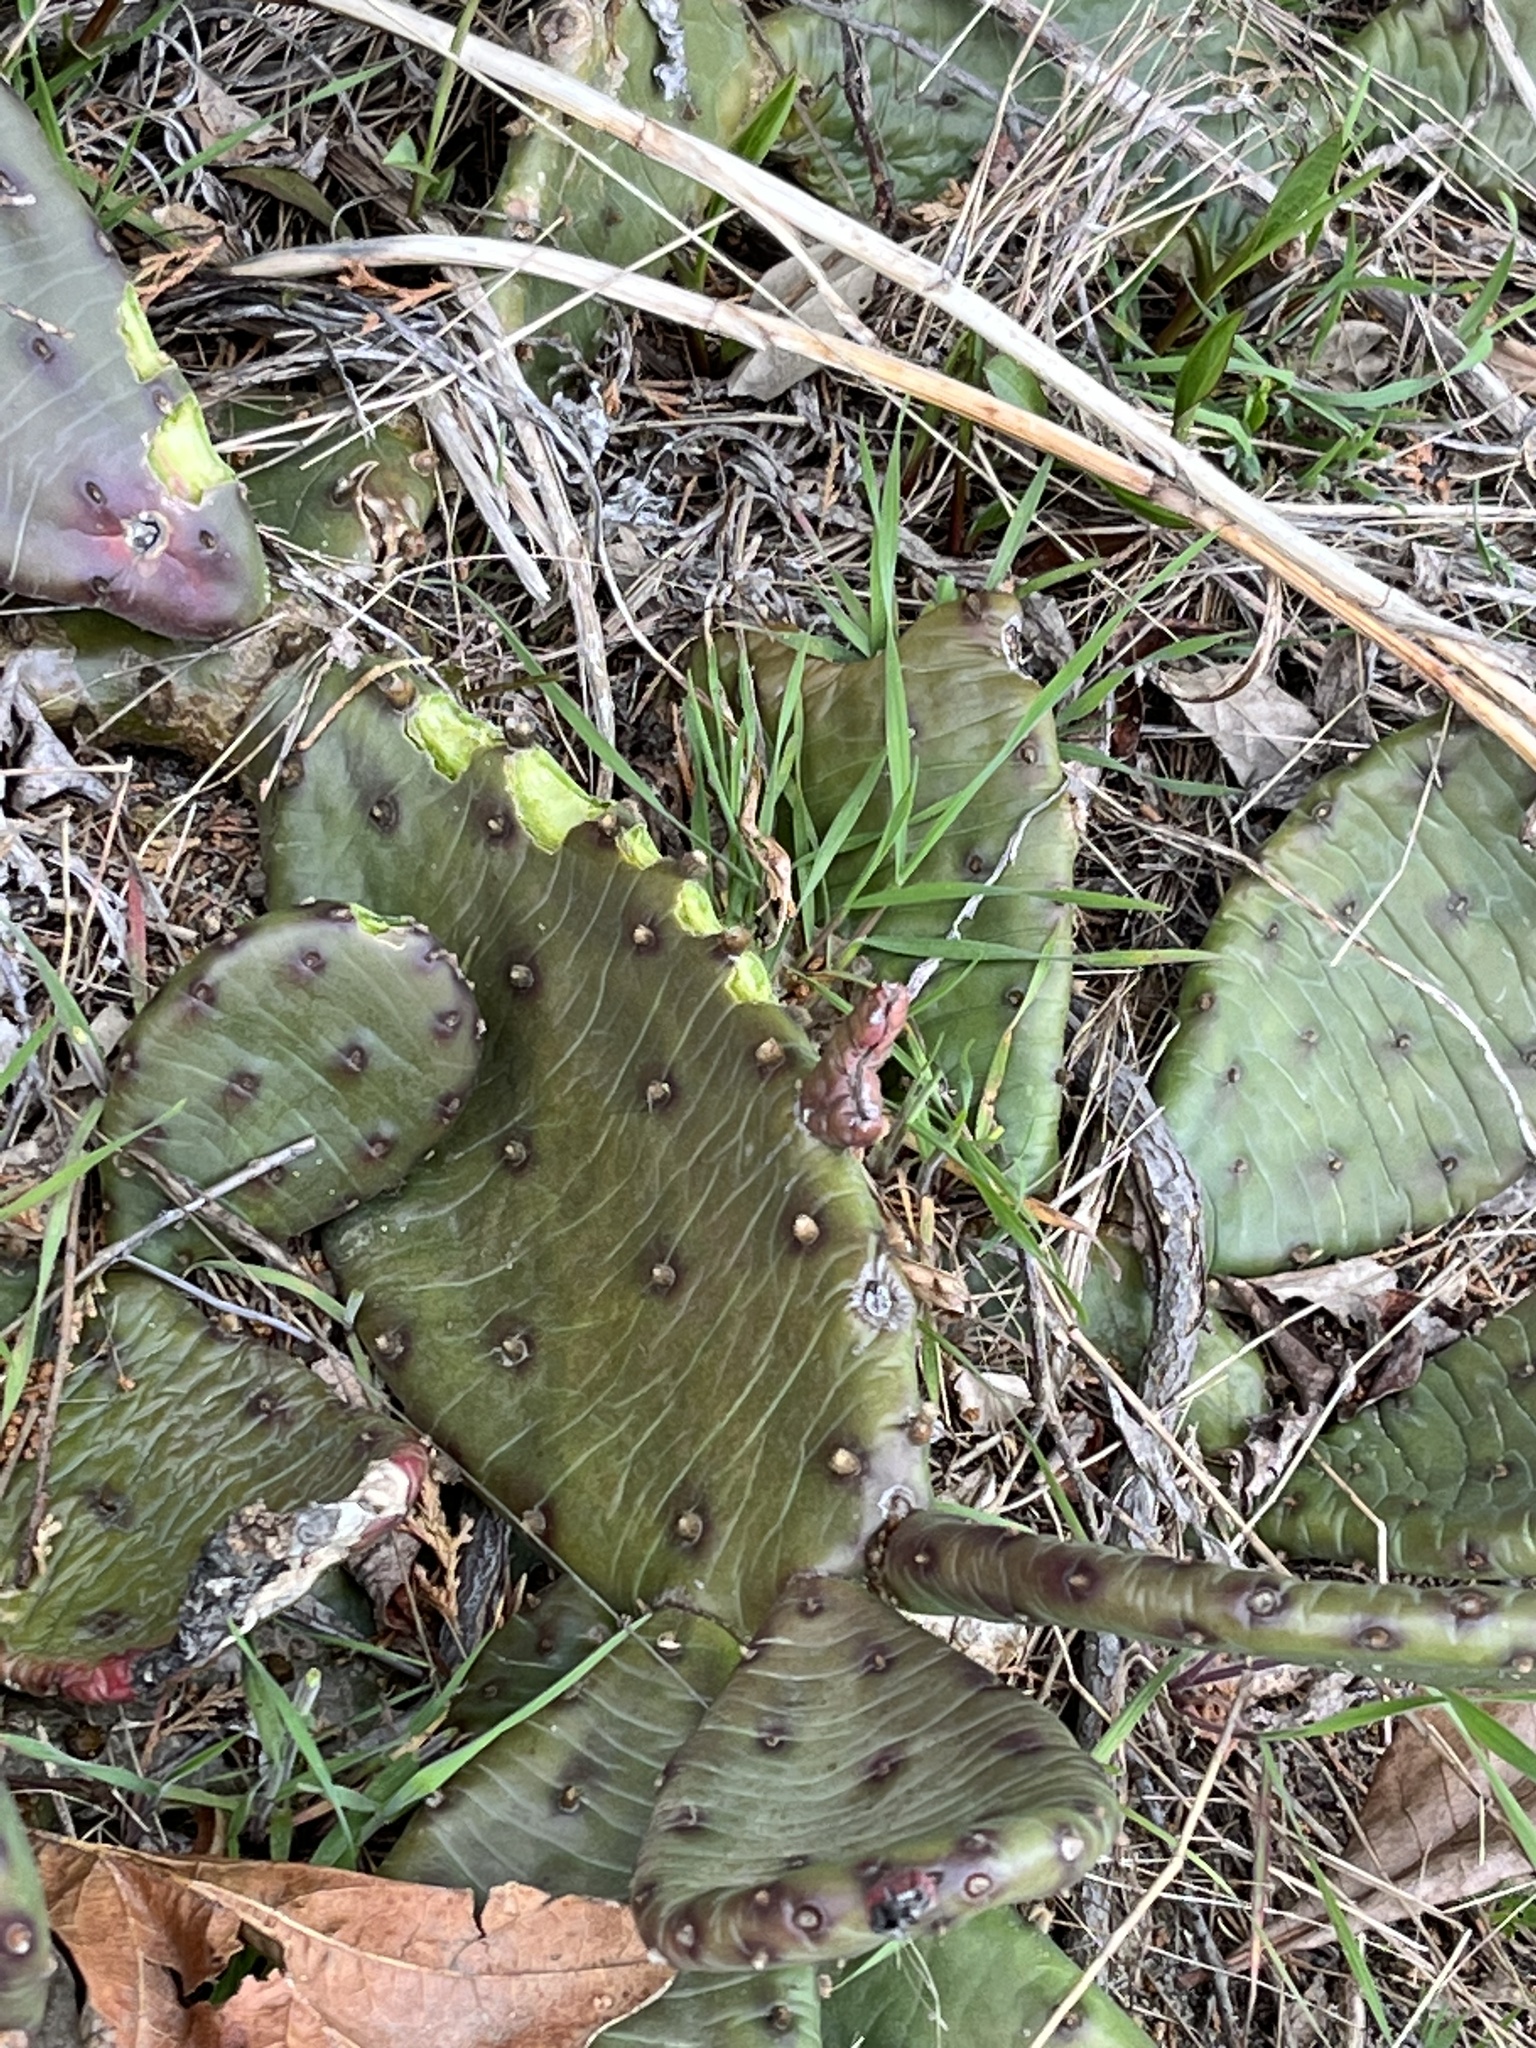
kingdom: Plantae
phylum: Tracheophyta
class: Magnoliopsida
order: Caryophyllales
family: Cactaceae
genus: Opuntia
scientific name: Opuntia humifusa
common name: Eastern prickly-pear
